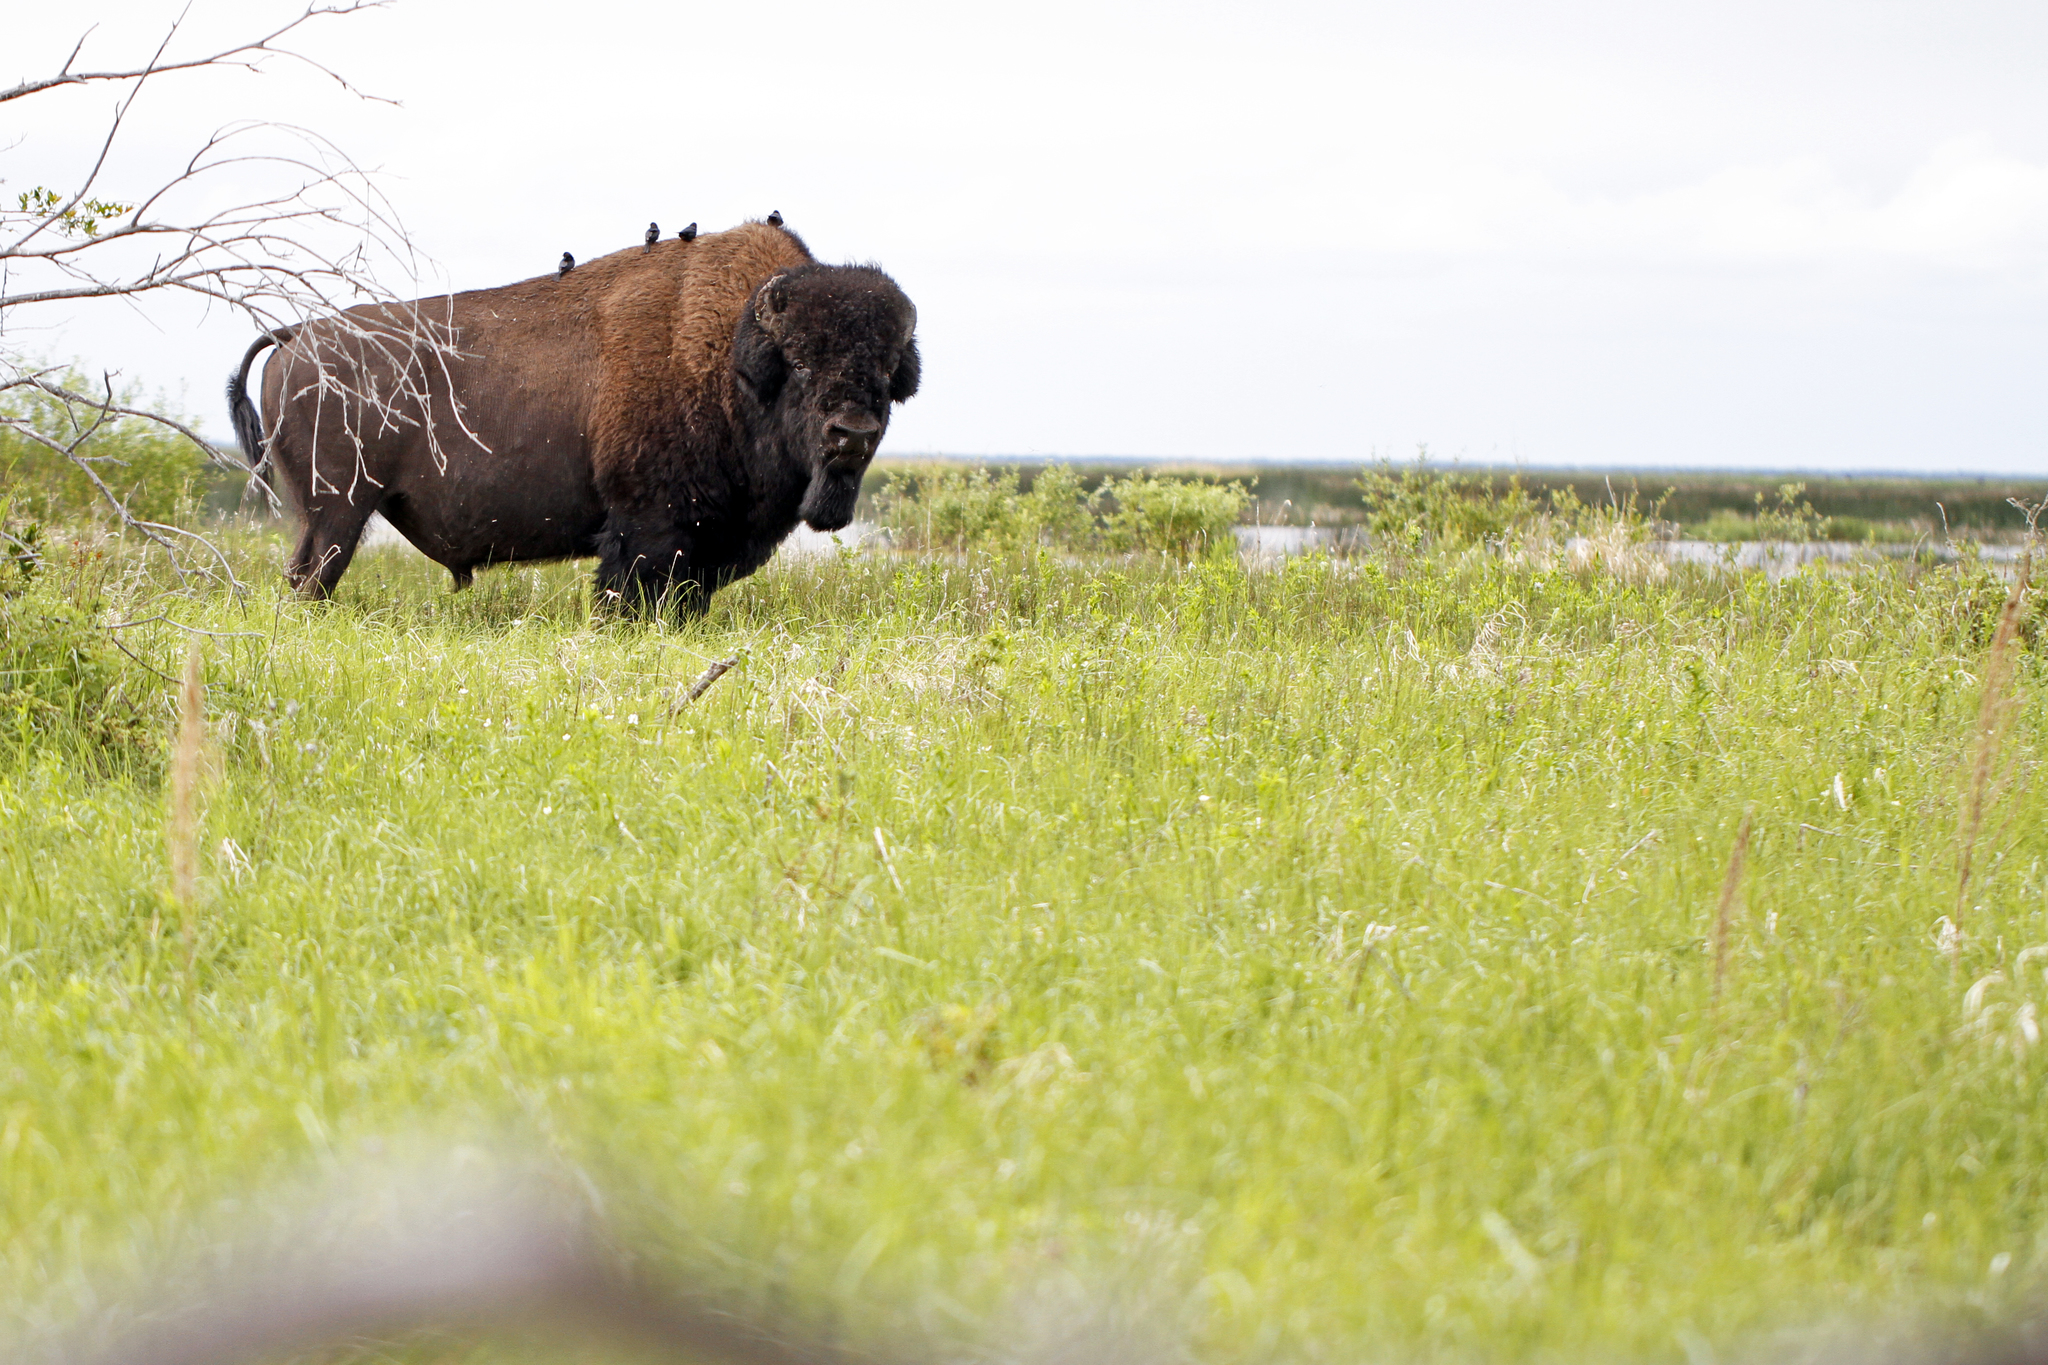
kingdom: Animalia
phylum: Chordata
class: Aves
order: Passeriformes
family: Icteridae
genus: Molothrus
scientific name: Molothrus ater
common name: Brown-headed cowbird
